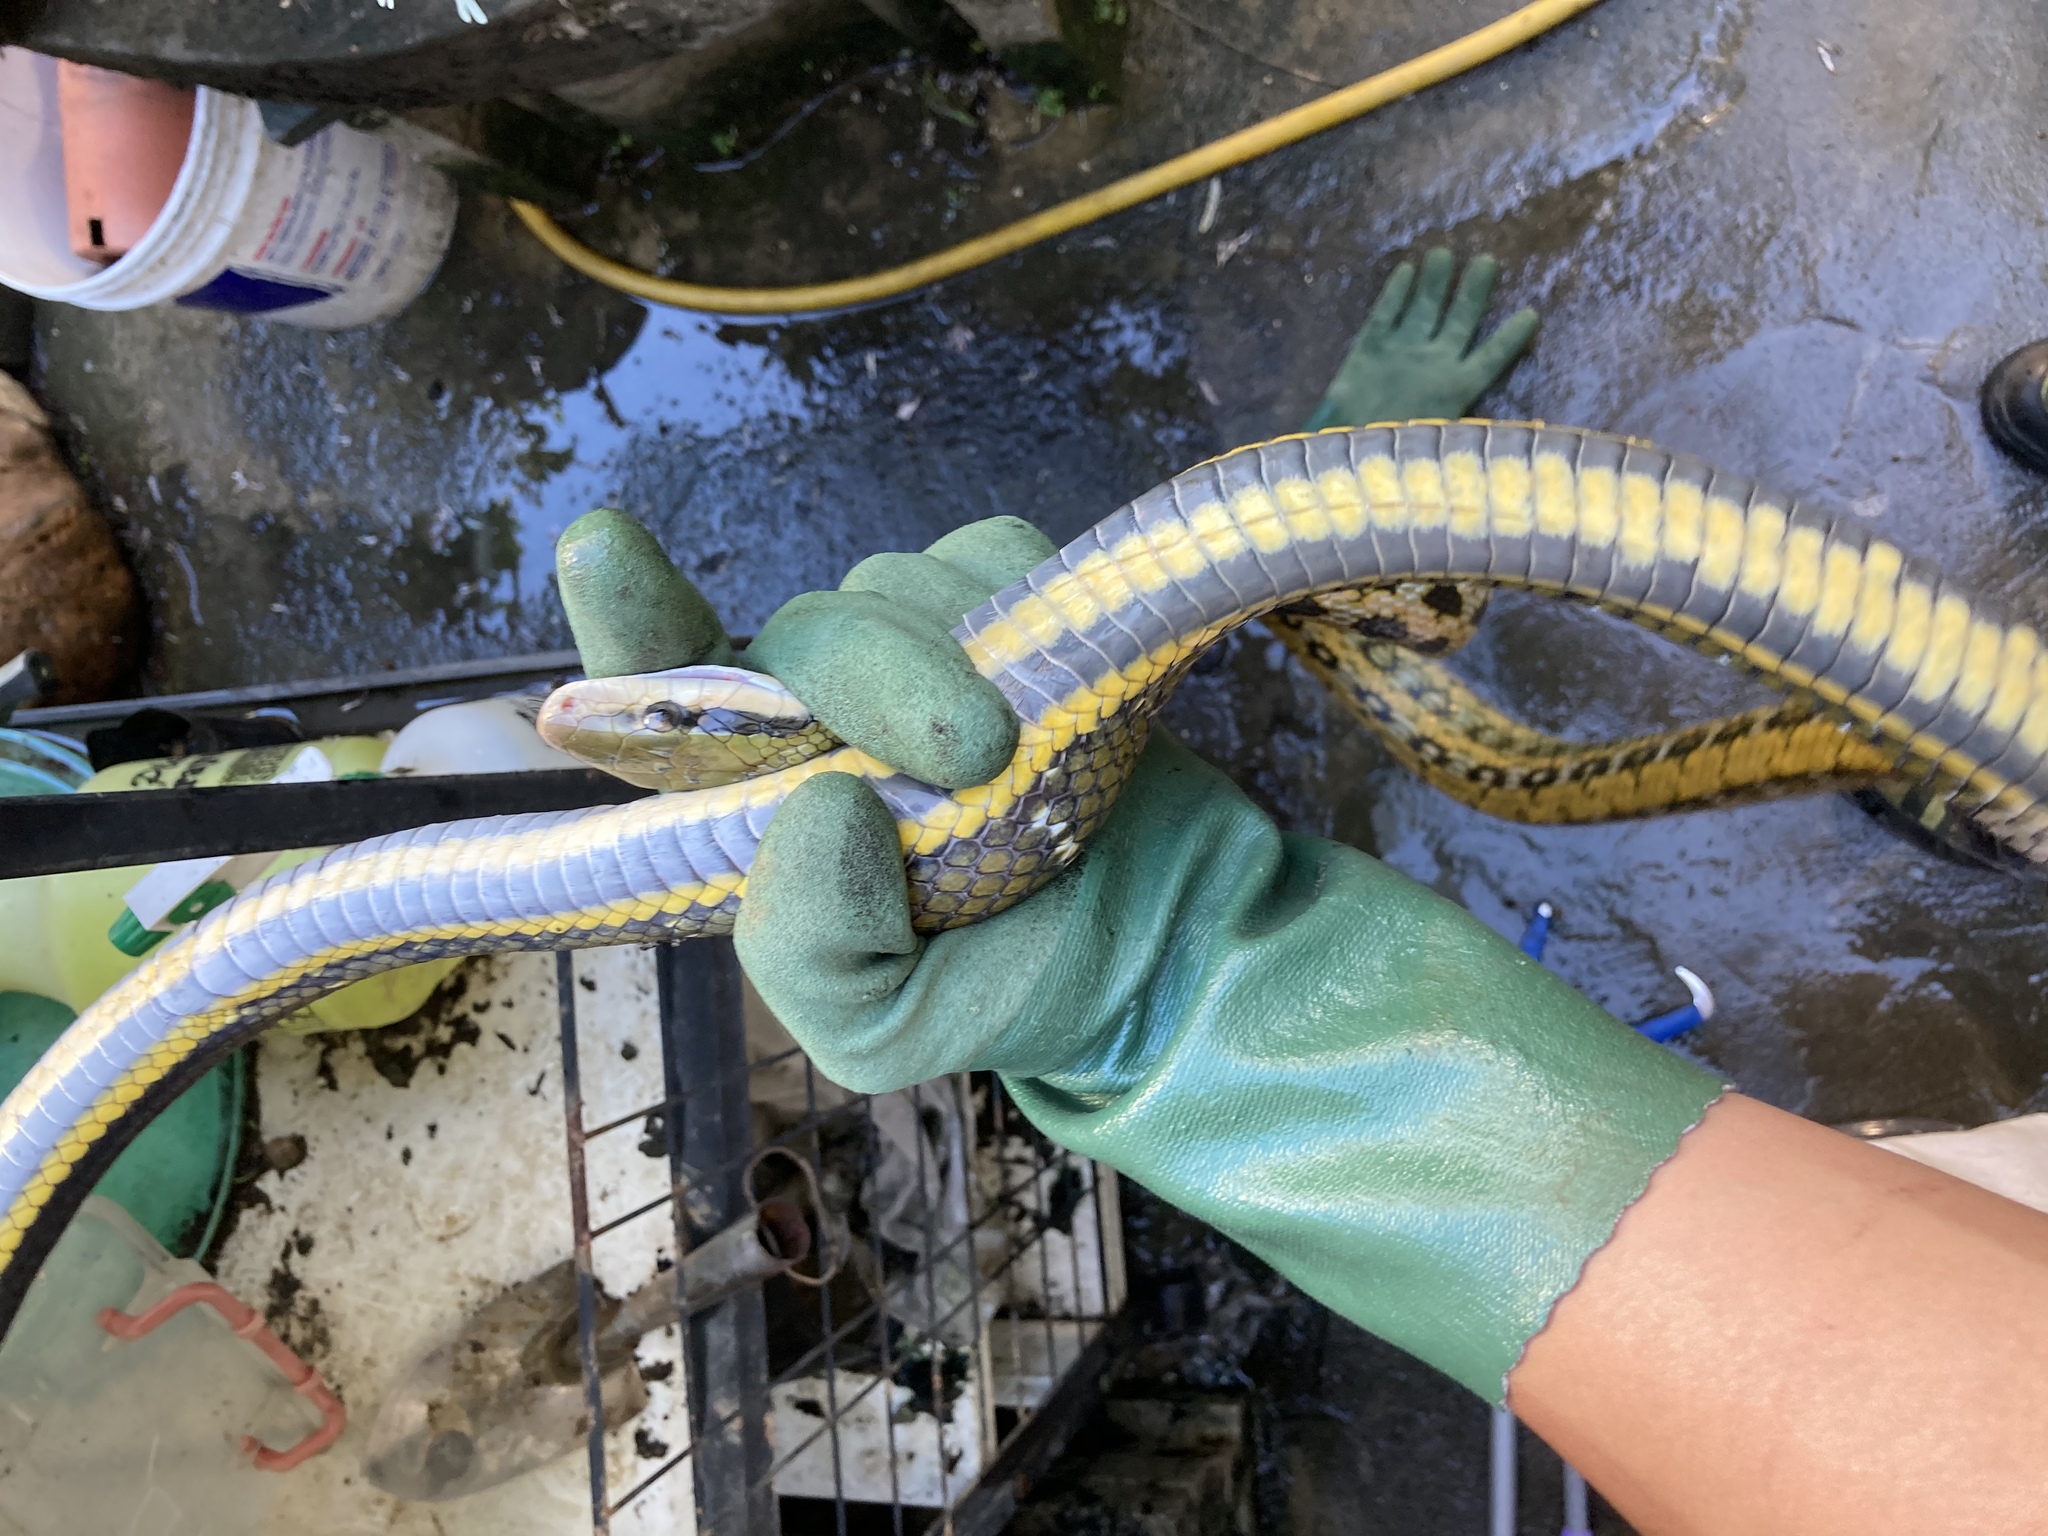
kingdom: Animalia
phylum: Chordata
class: Squamata
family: Colubridae
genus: Elaphe
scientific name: Elaphe taeniura
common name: Beauty snake
